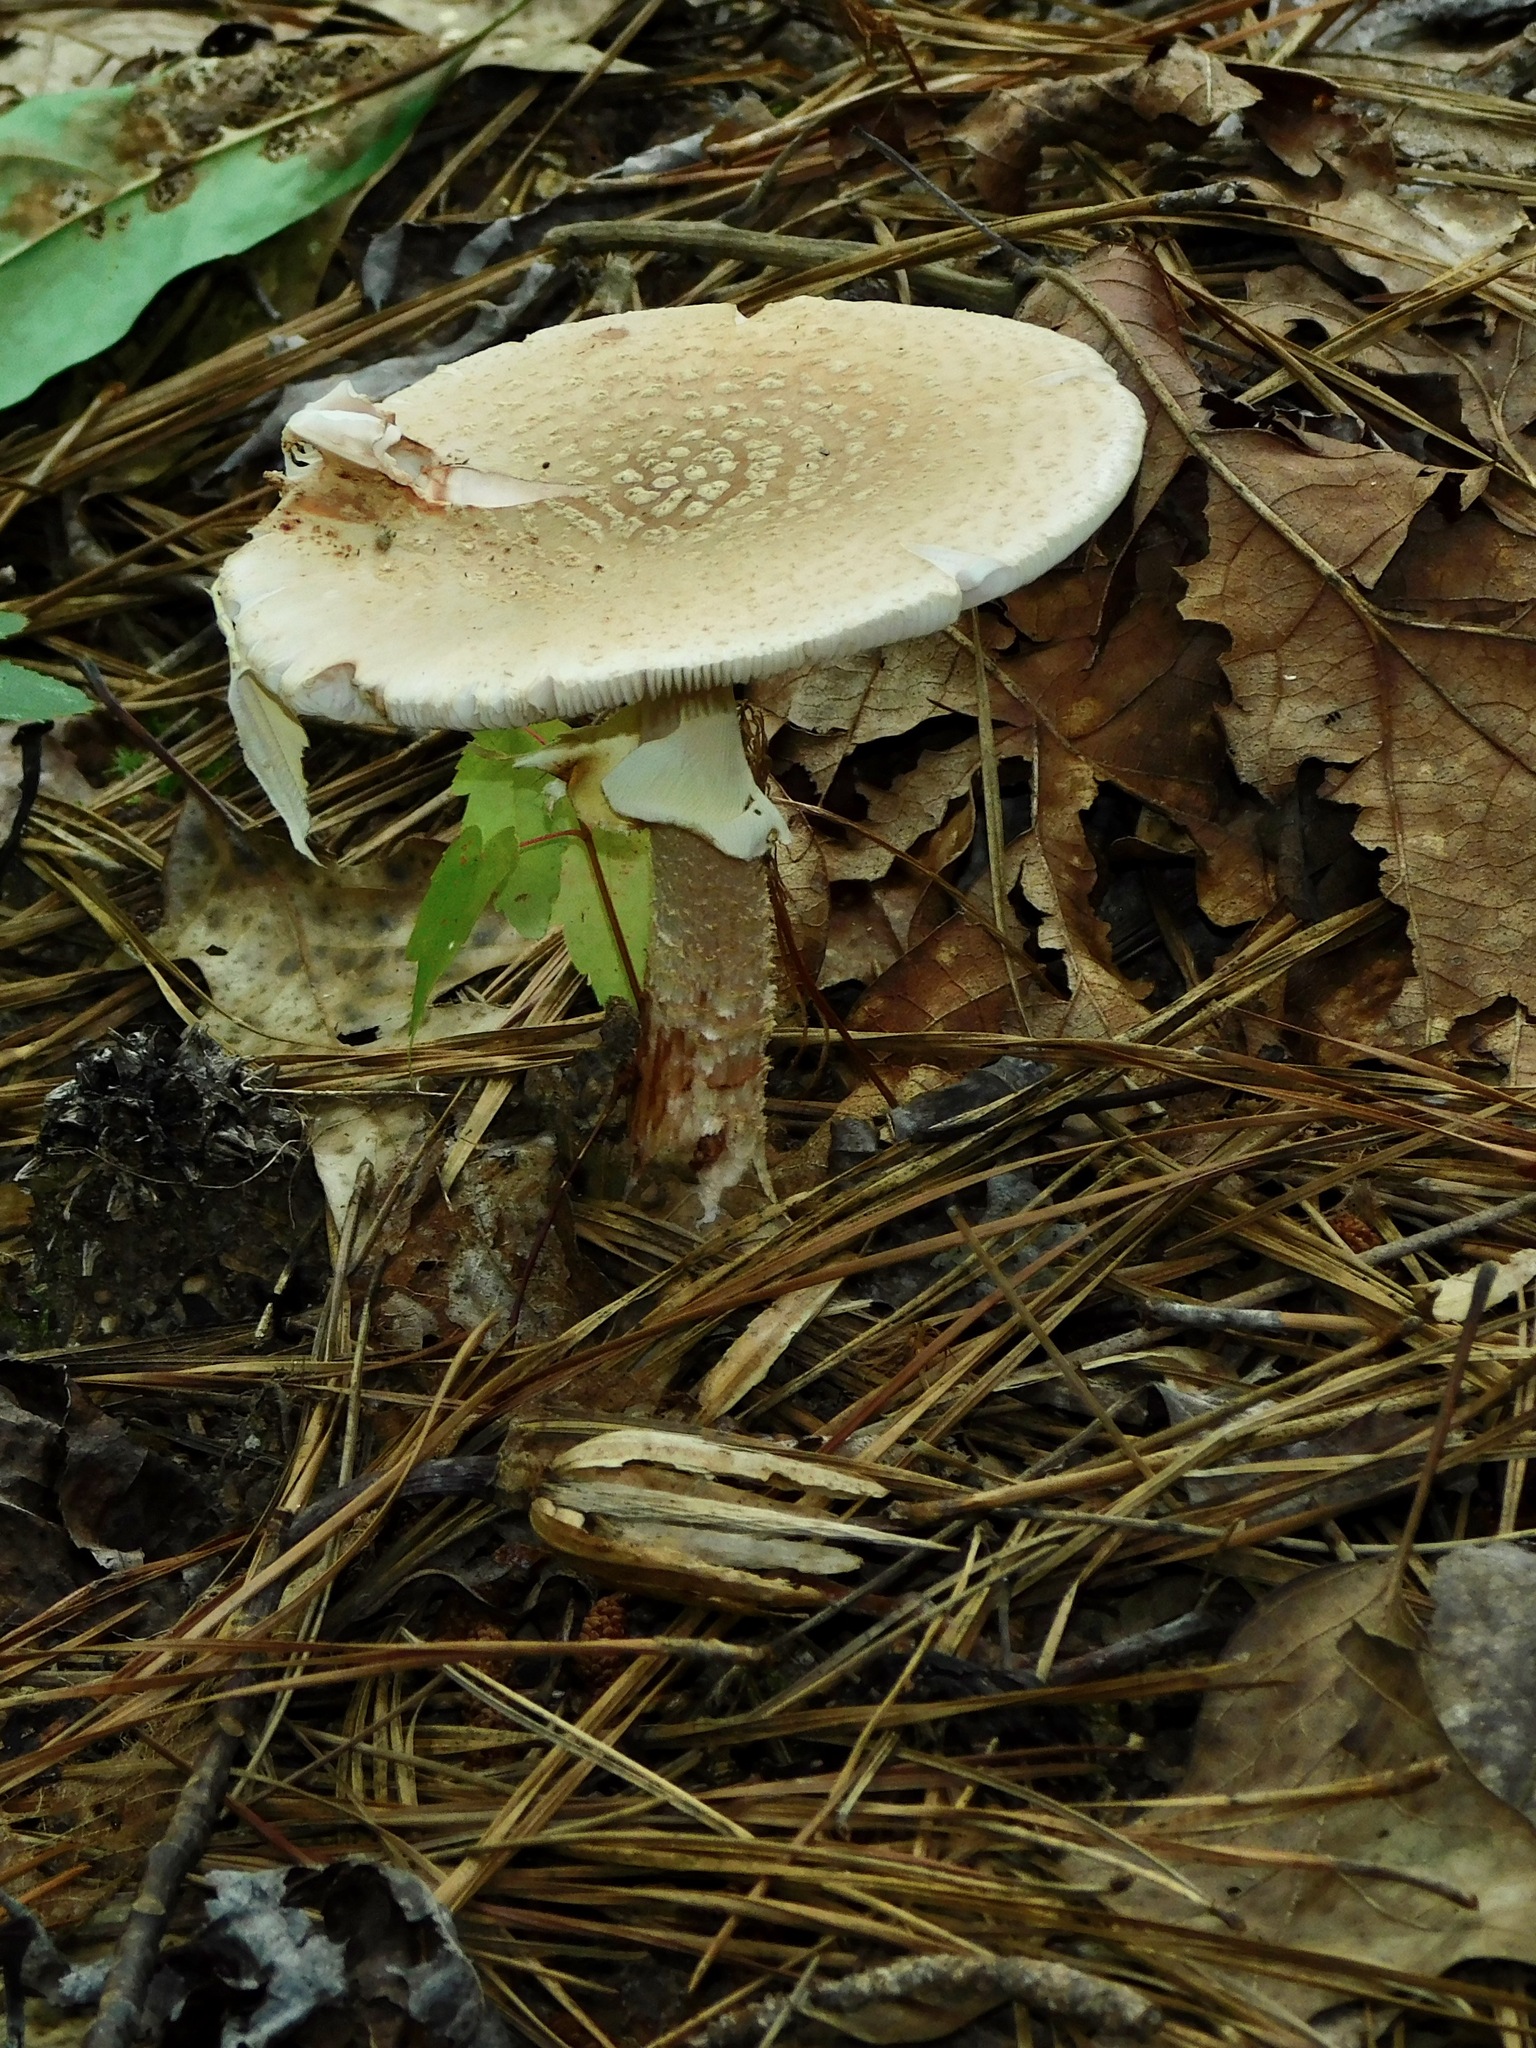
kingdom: Fungi
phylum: Basidiomycota
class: Agaricomycetes
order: Agaricales
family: Amanitaceae
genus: Amanita
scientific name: Amanita flavorubens
